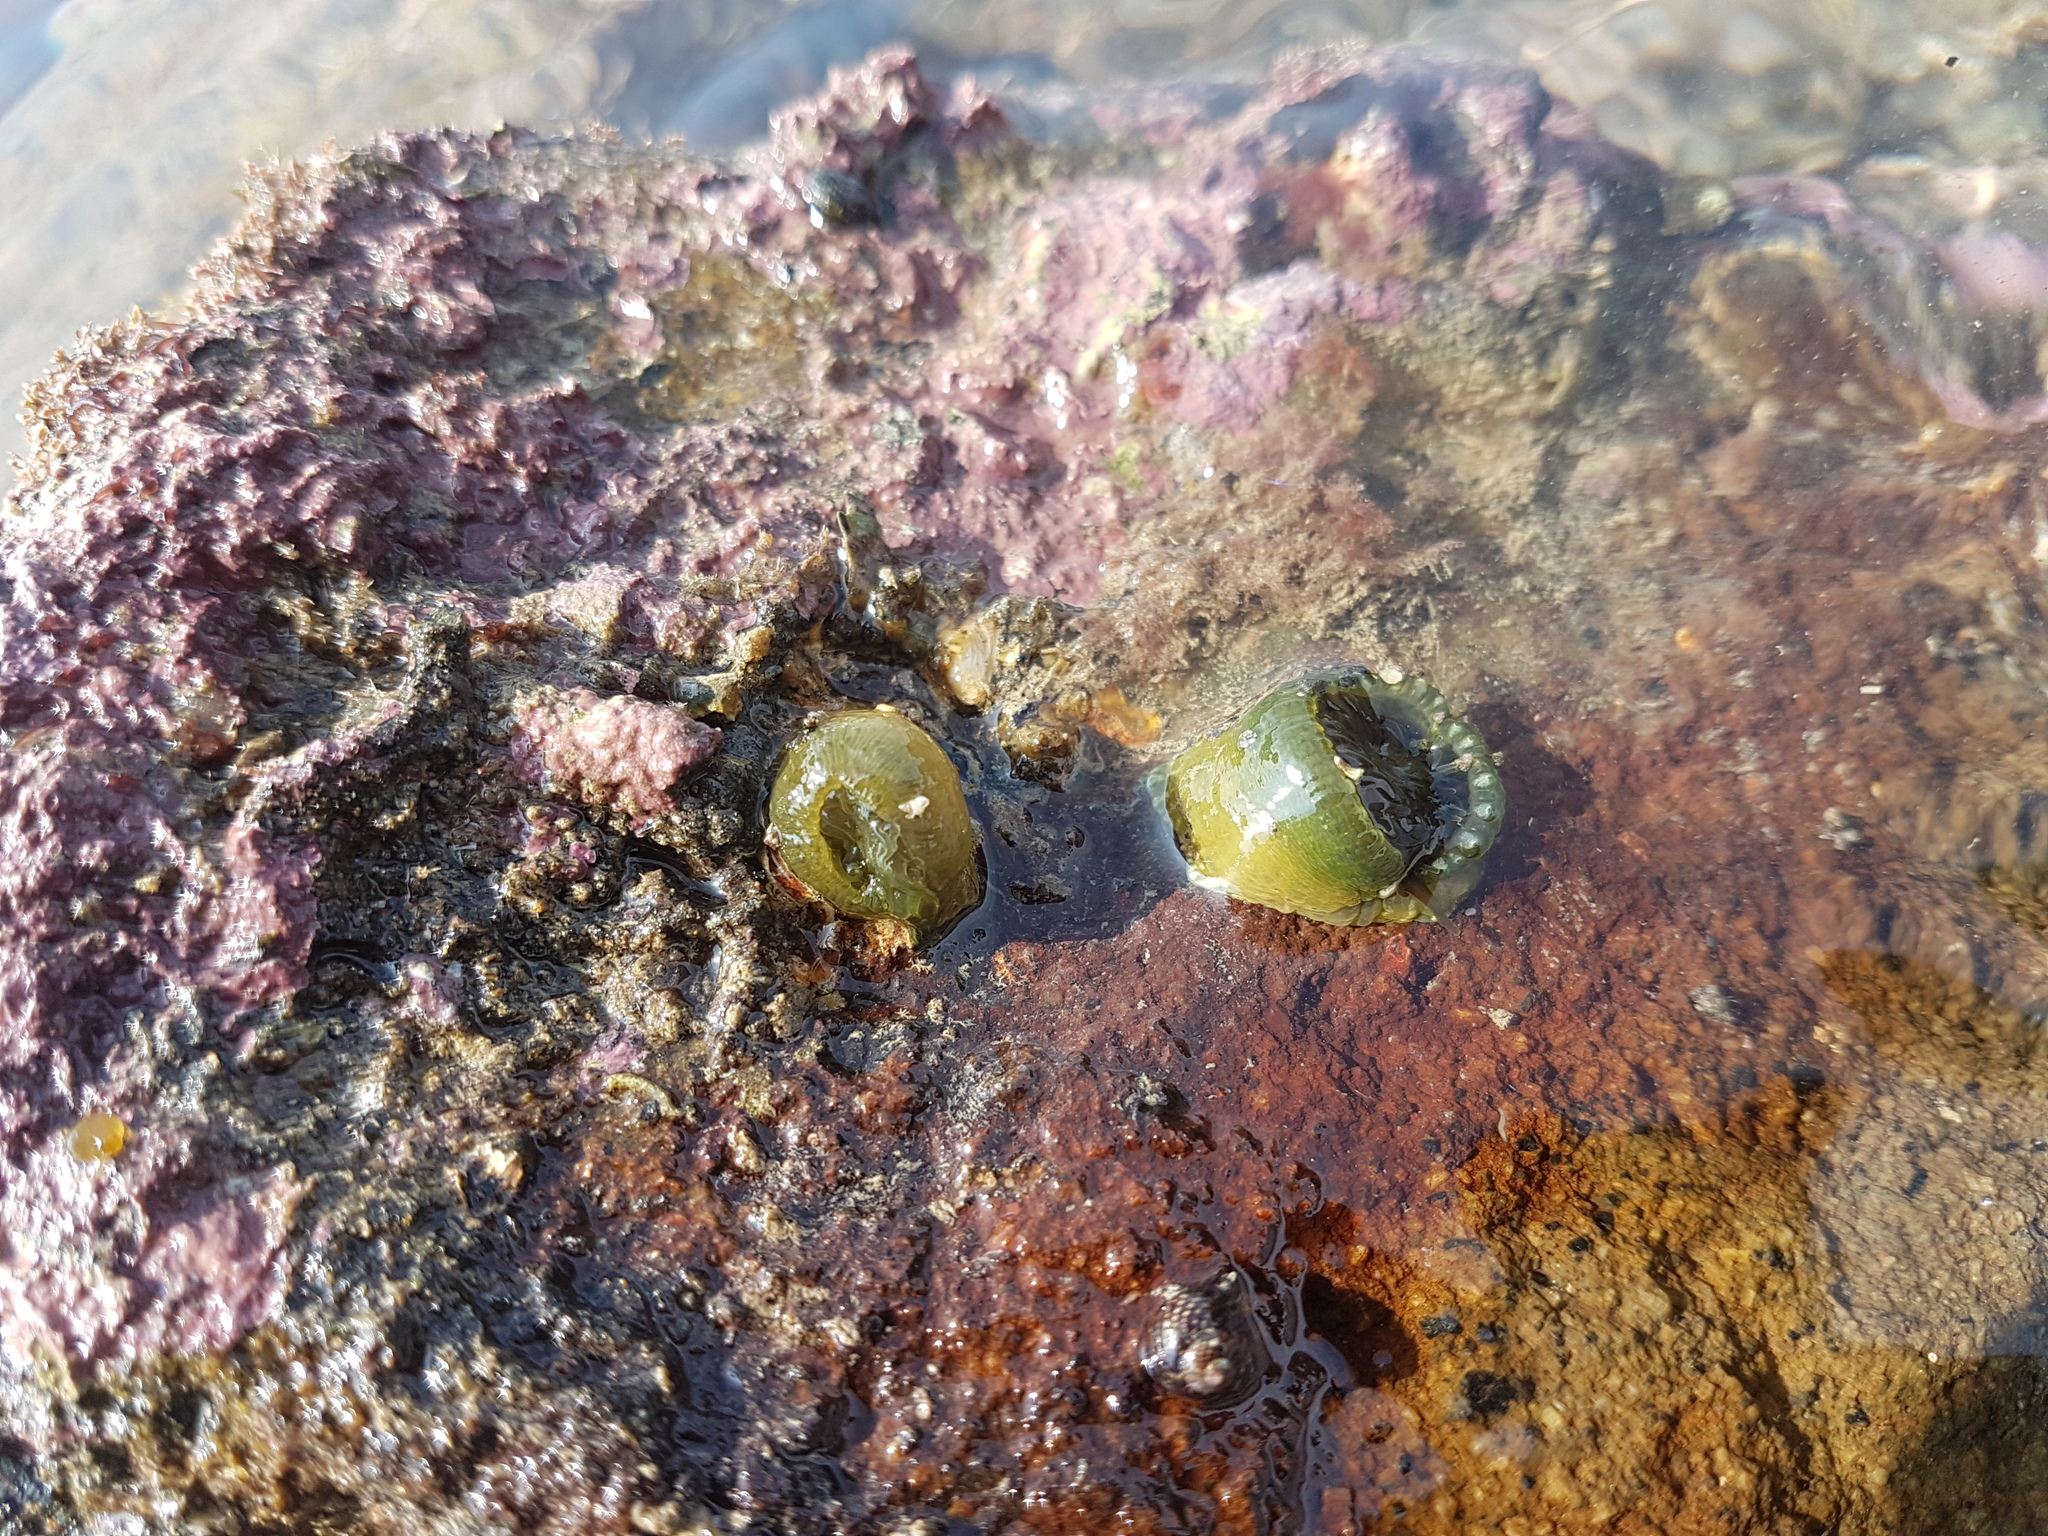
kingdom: Animalia
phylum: Cnidaria
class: Anthozoa
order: Actiniaria
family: Actiniidae
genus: Isactinia
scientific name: Isactinia olivacea
